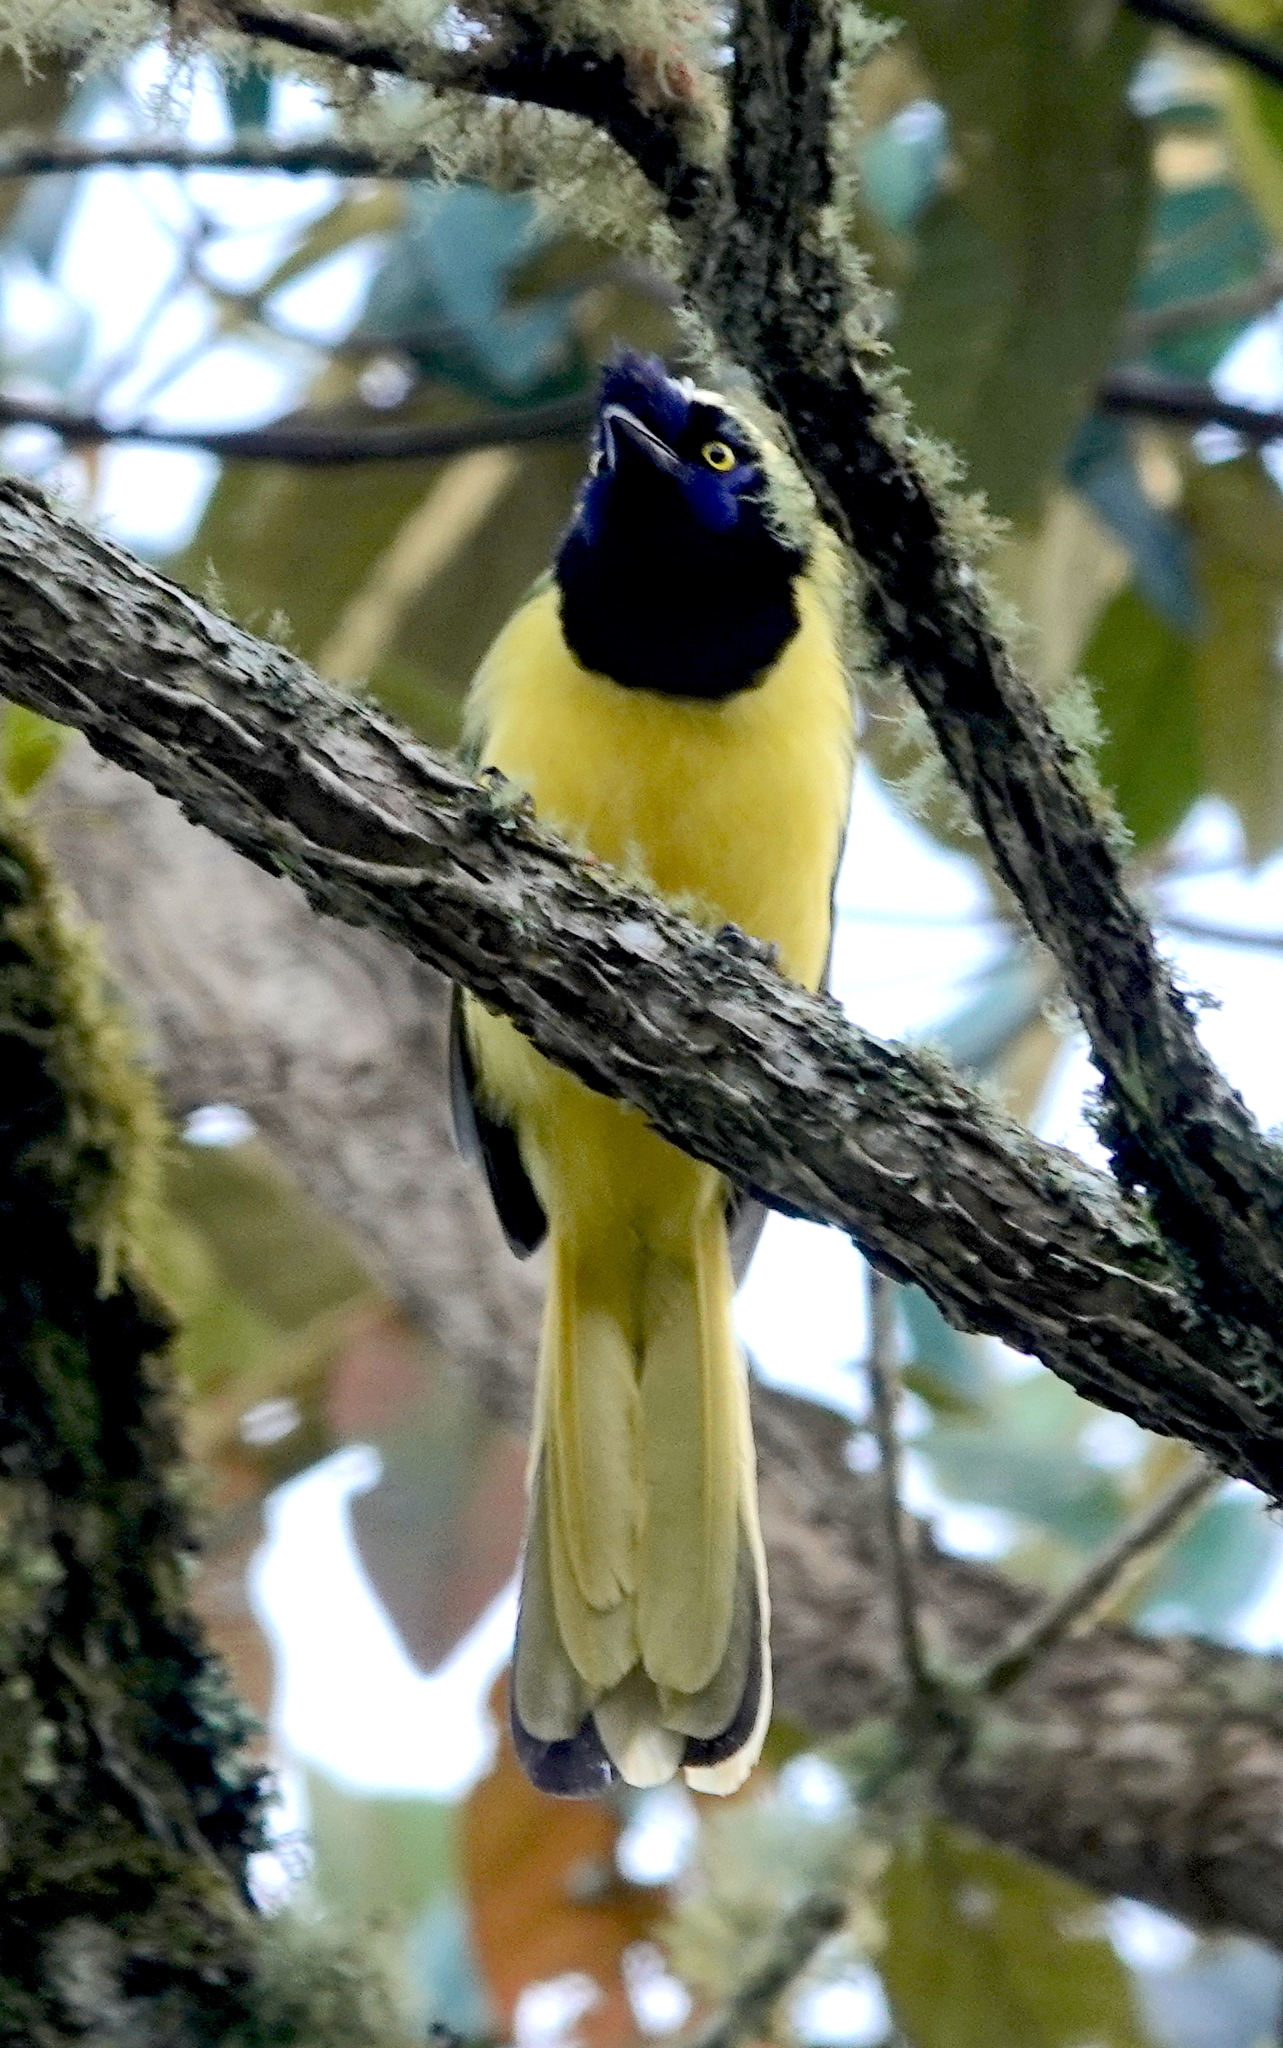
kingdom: Animalia
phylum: Chordata
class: Aves
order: Passeriformes
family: Corvidae
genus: Cyanocorax
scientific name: Cyanocorax yncas
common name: Green jay
